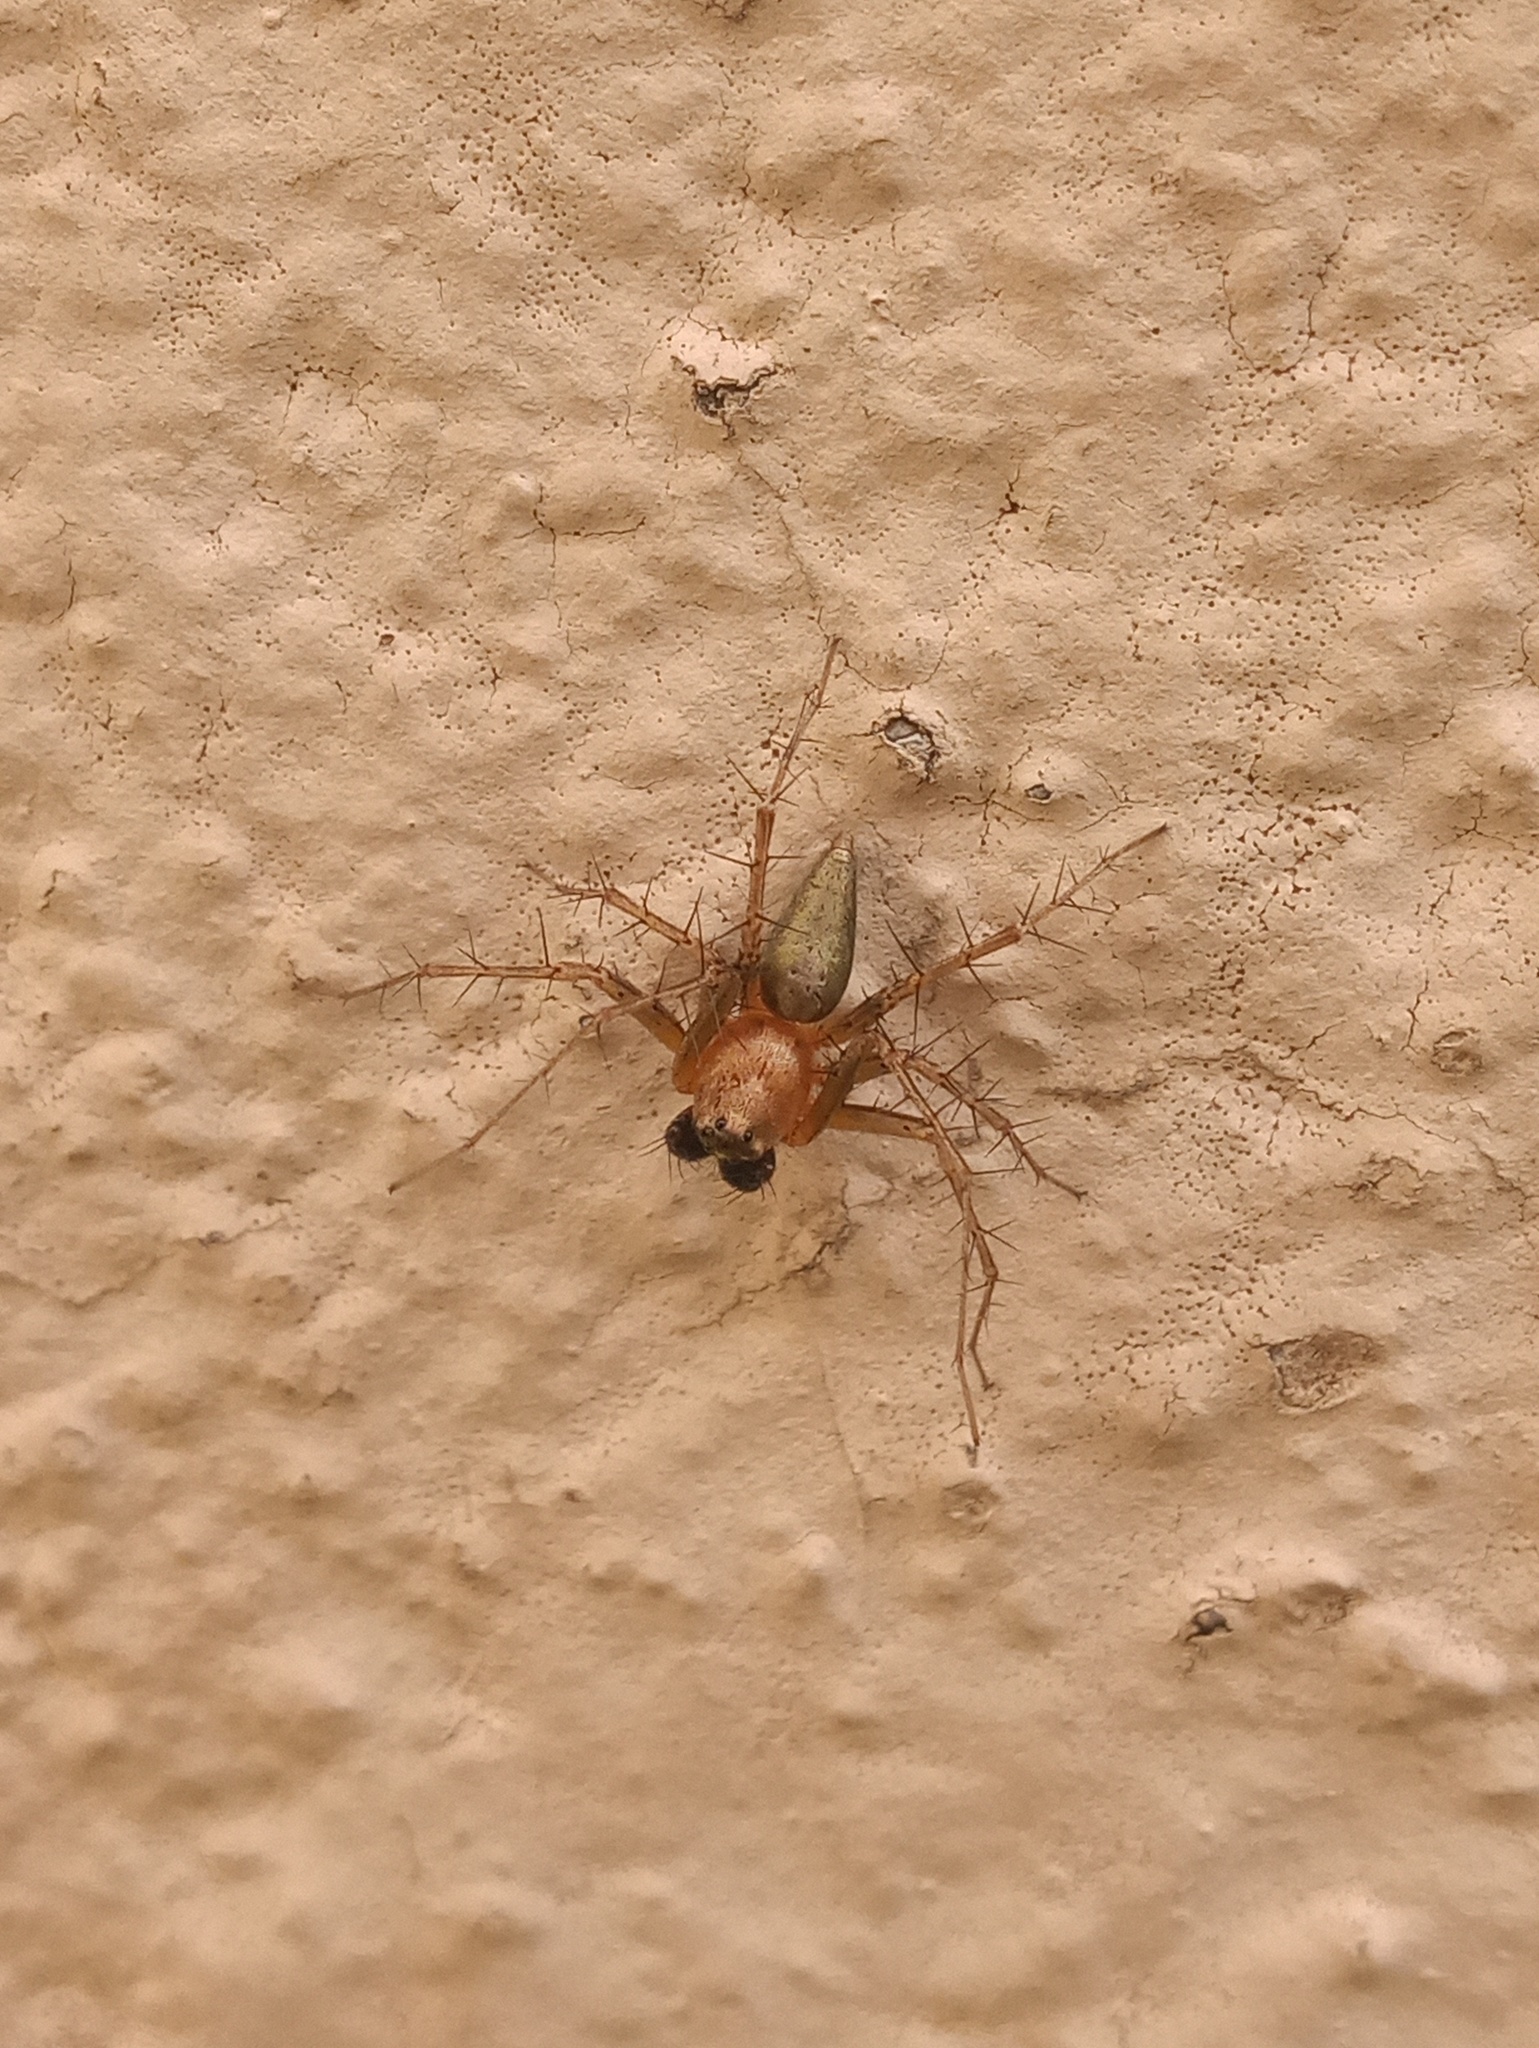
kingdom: Animalia
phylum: Arthropoda
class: Arachnida
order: Araneae
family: Oxyopidae
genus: Oxyopes
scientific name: Oxyopes salticus
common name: Lynx spiders
